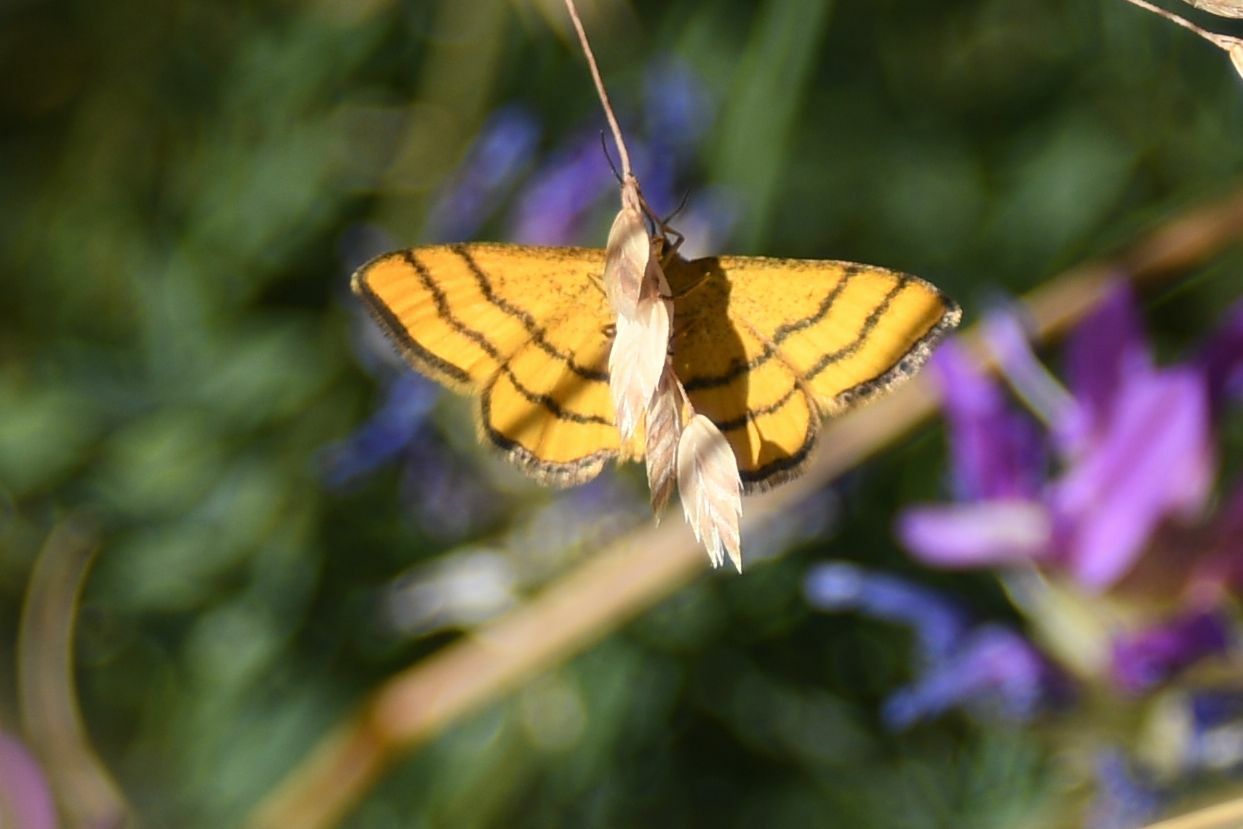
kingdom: Animalia
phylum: Arthropoda
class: Insecta
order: Lepidoptera
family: Geometridae
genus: Idaea
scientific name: Idaea aureolaria
